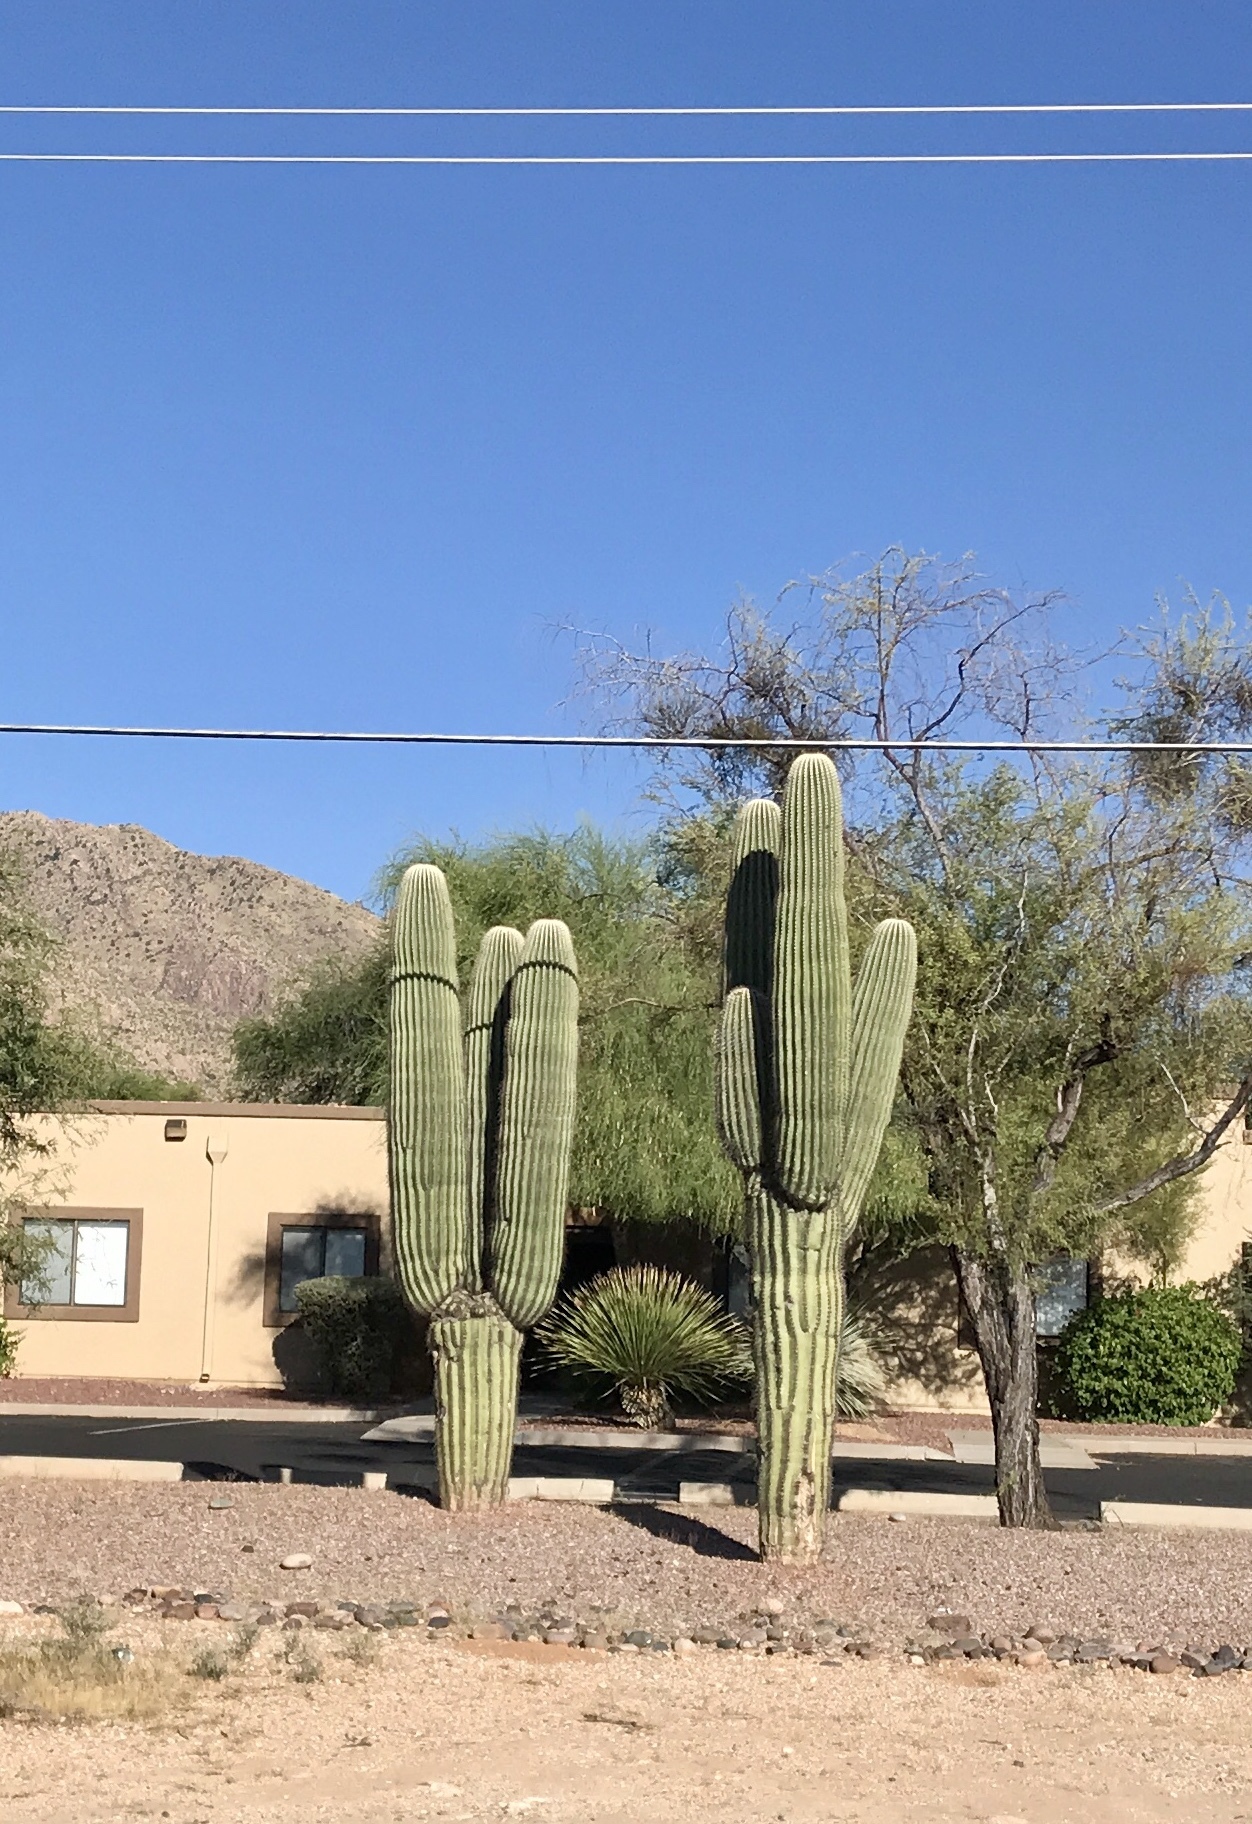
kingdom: Plantae
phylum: Tracheophyta
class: Magnoliopsida
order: Caryophyllales
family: Cactaceae
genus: Carnegiea
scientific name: Carnegiea gigantea
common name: Saguaro
